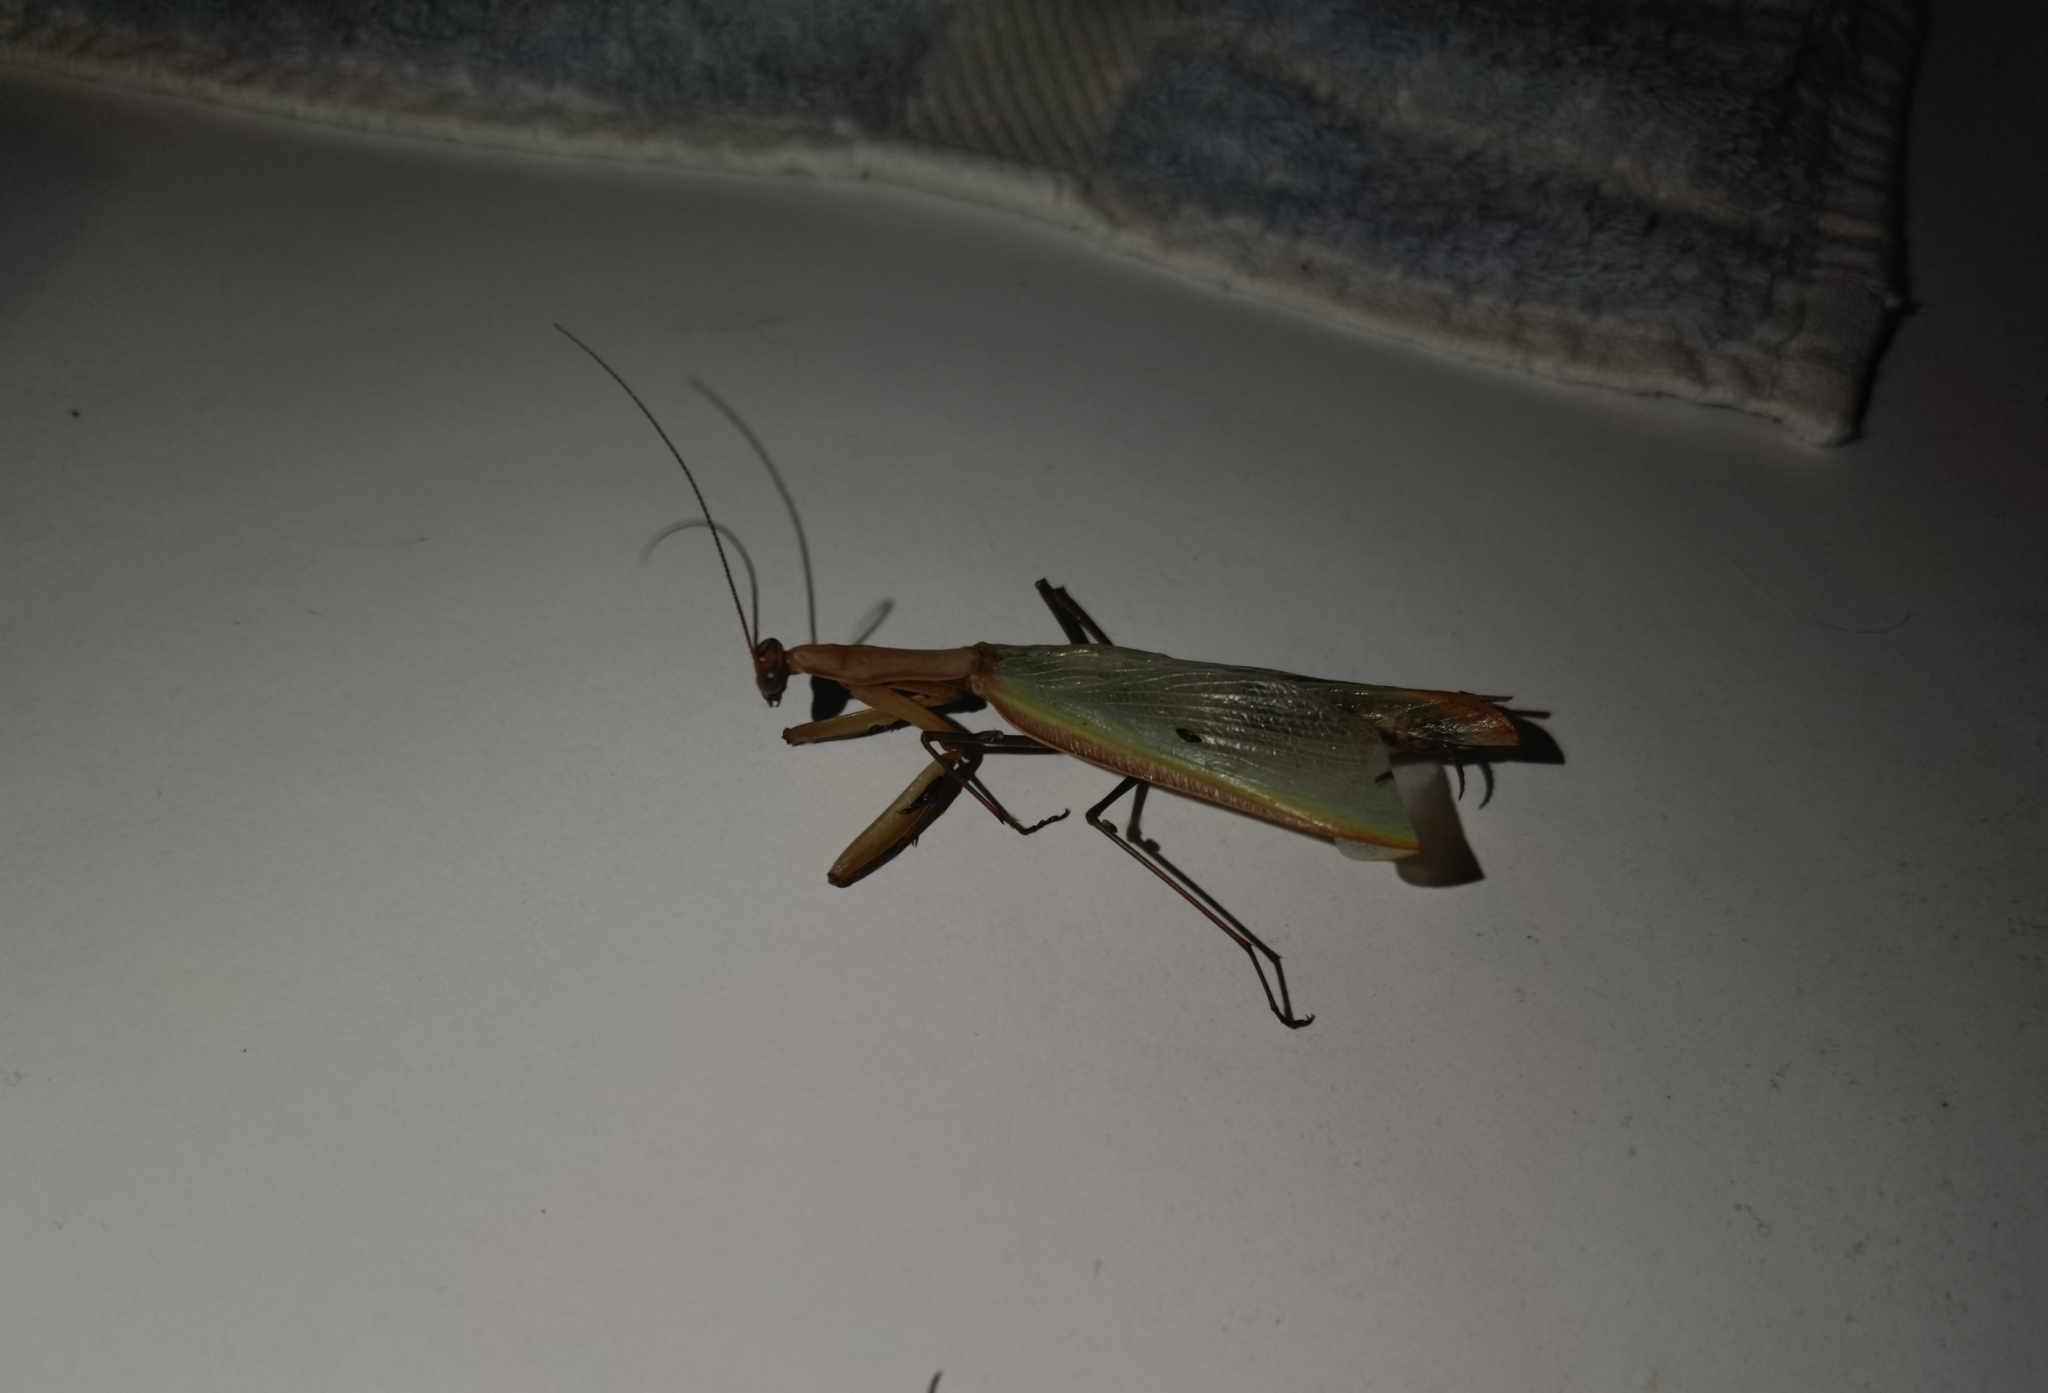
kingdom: Animalia
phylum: Arthropoda
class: Insecta
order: Mantodea
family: Mantidae
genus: Mantis
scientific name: Mantis religiosa
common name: Praying mantis
